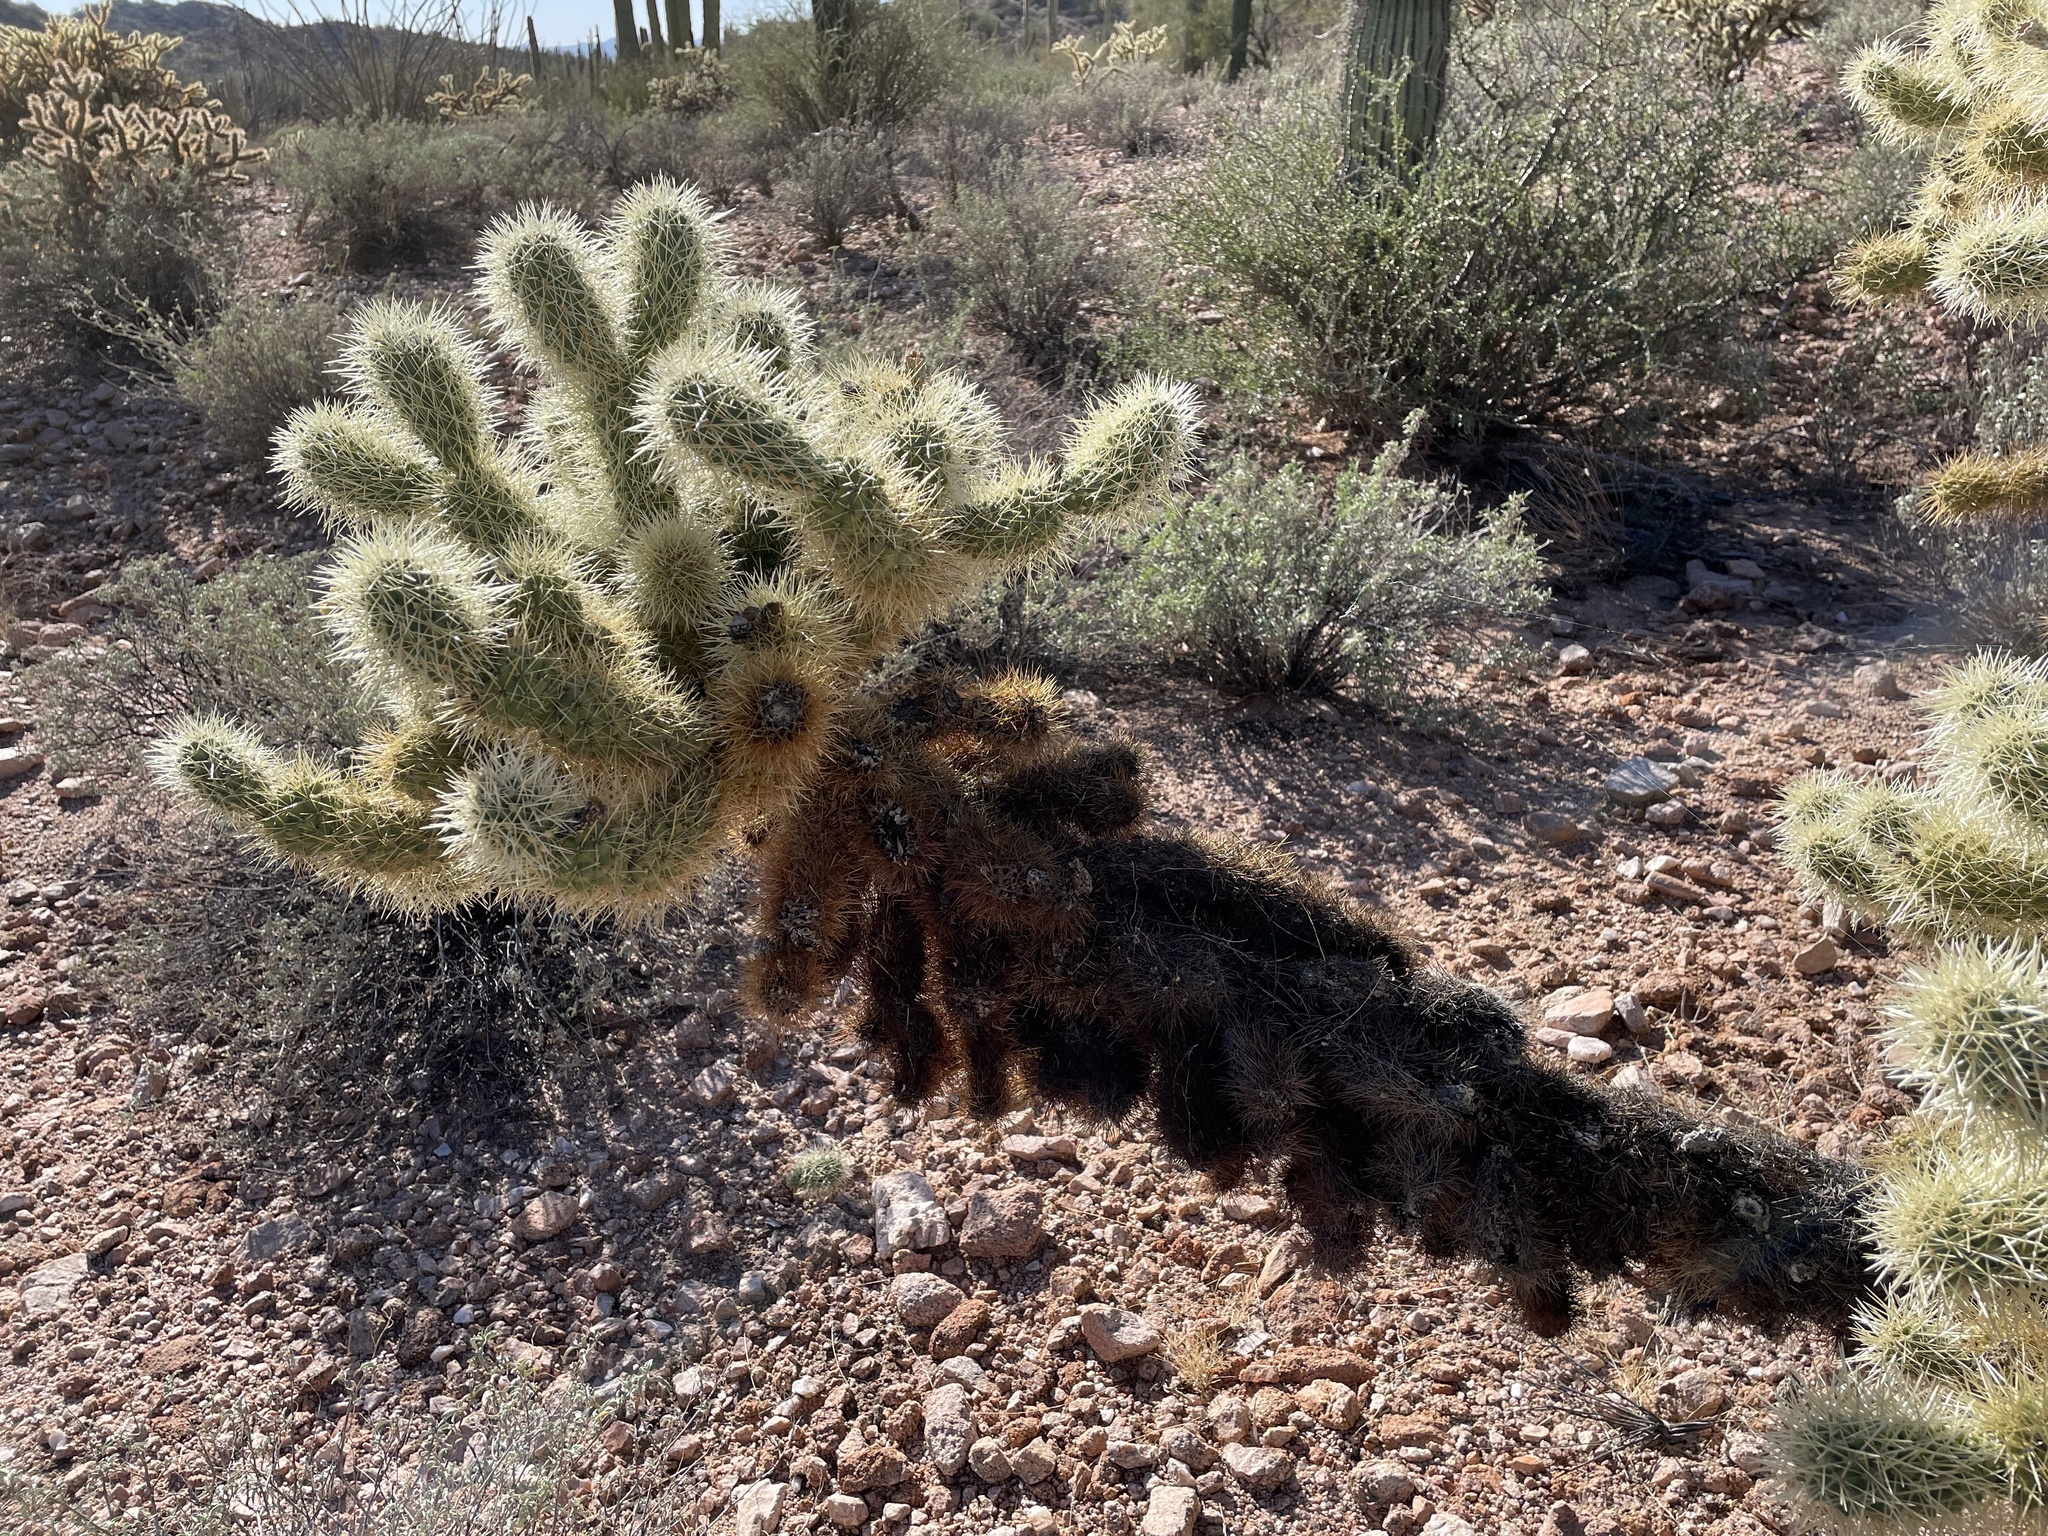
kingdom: Plantae
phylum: Tracheophyta
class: Magnoliopsida
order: Caryophyllales
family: Cactaceae
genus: Cylindropuntia
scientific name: Cylindropuntia fosbergii
